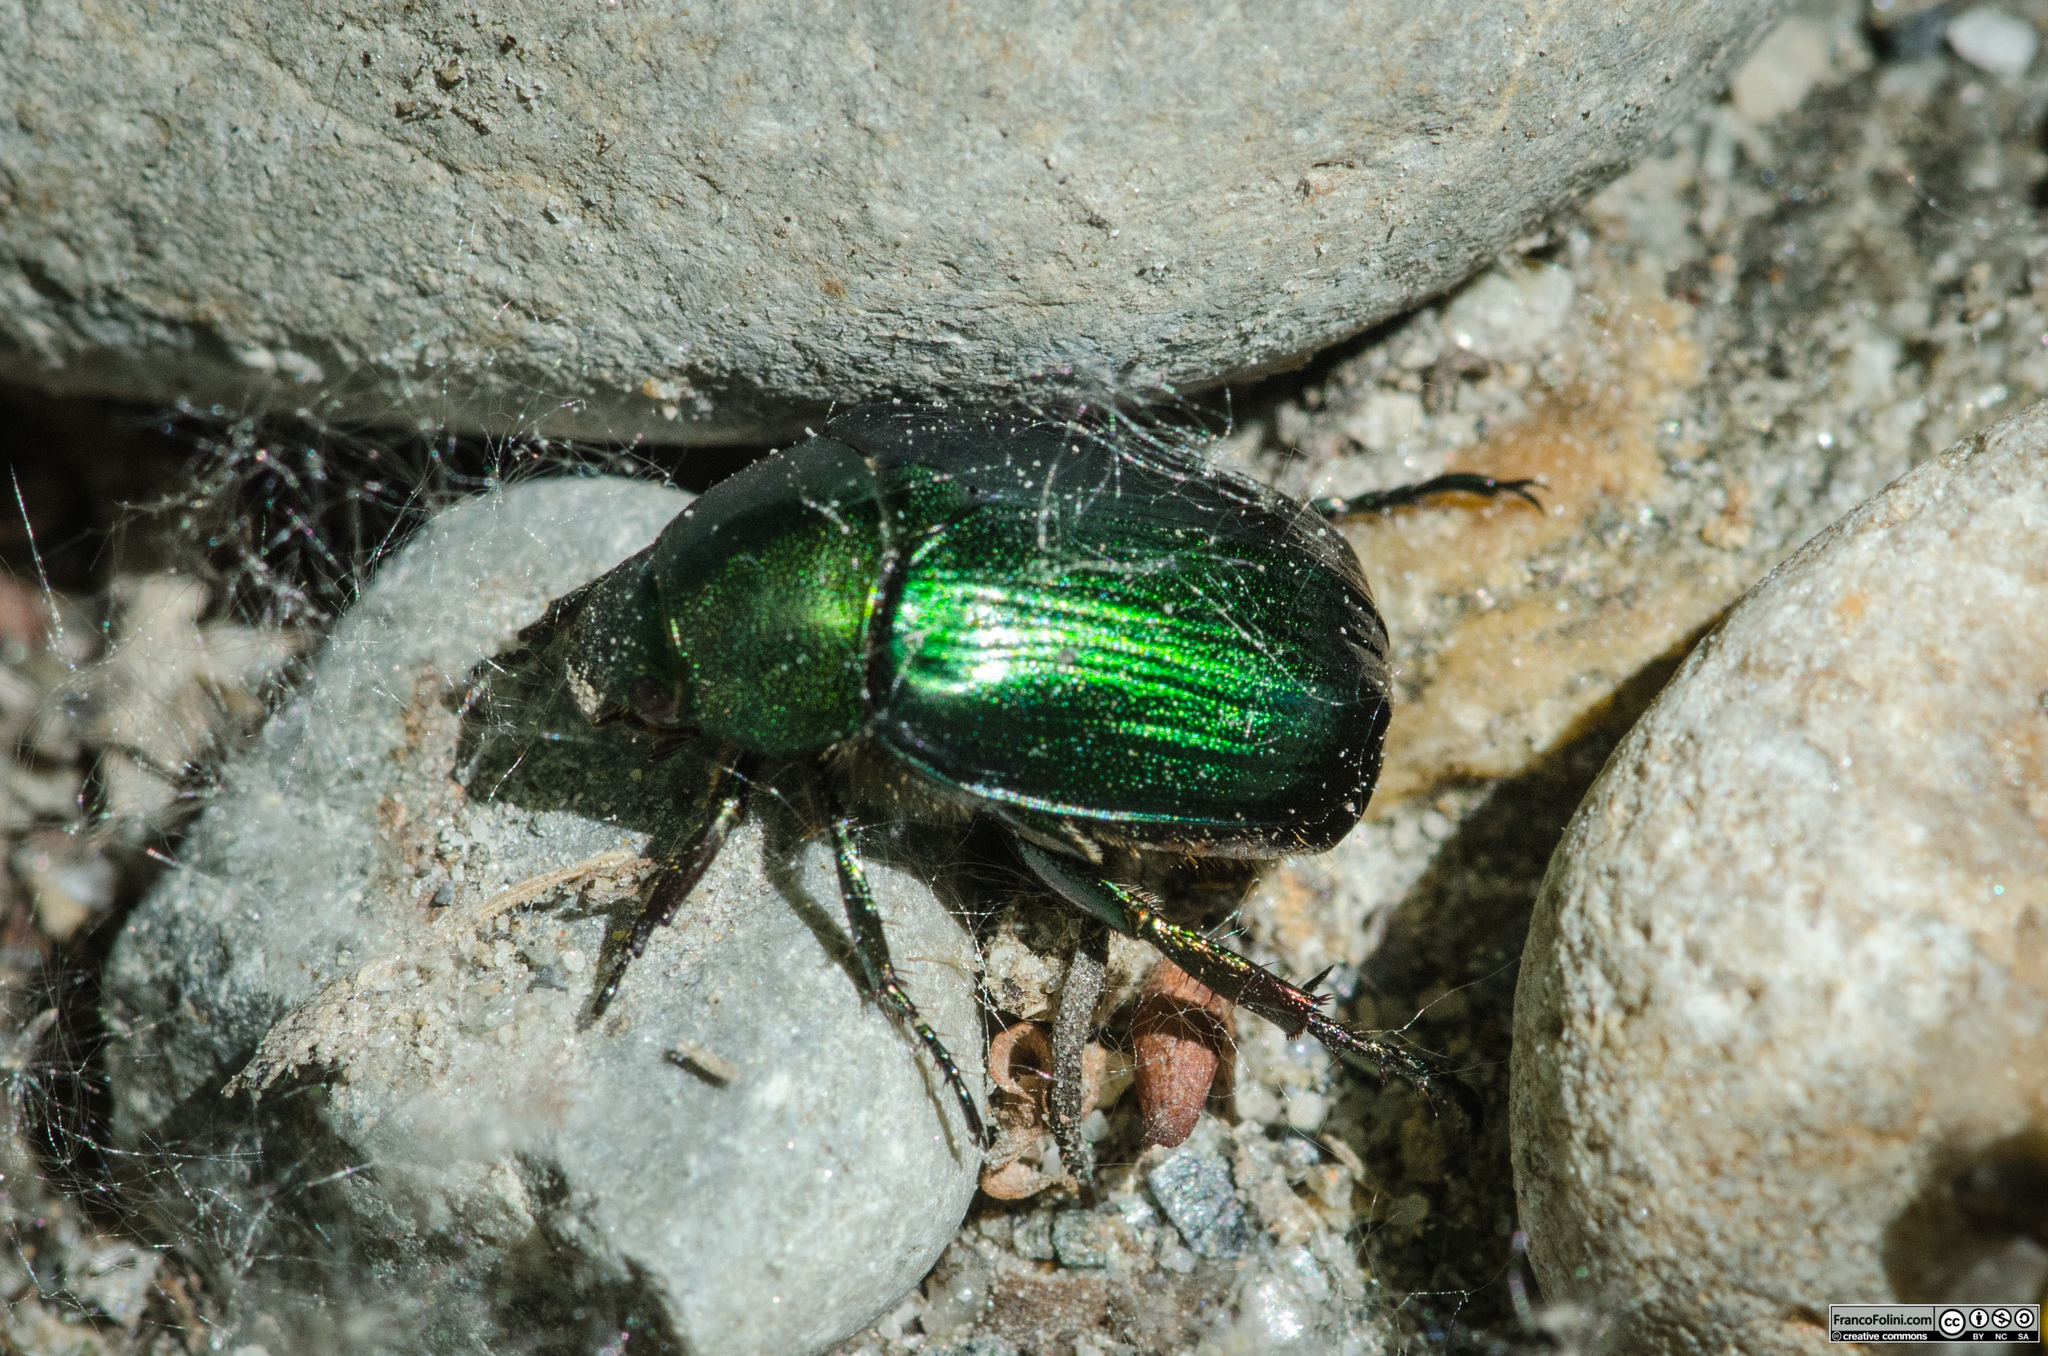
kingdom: Animalia
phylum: Arthropoda
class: Insecta
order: Coleoptera
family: Scarabaeidae
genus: Anomala
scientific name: Anomala vitis
